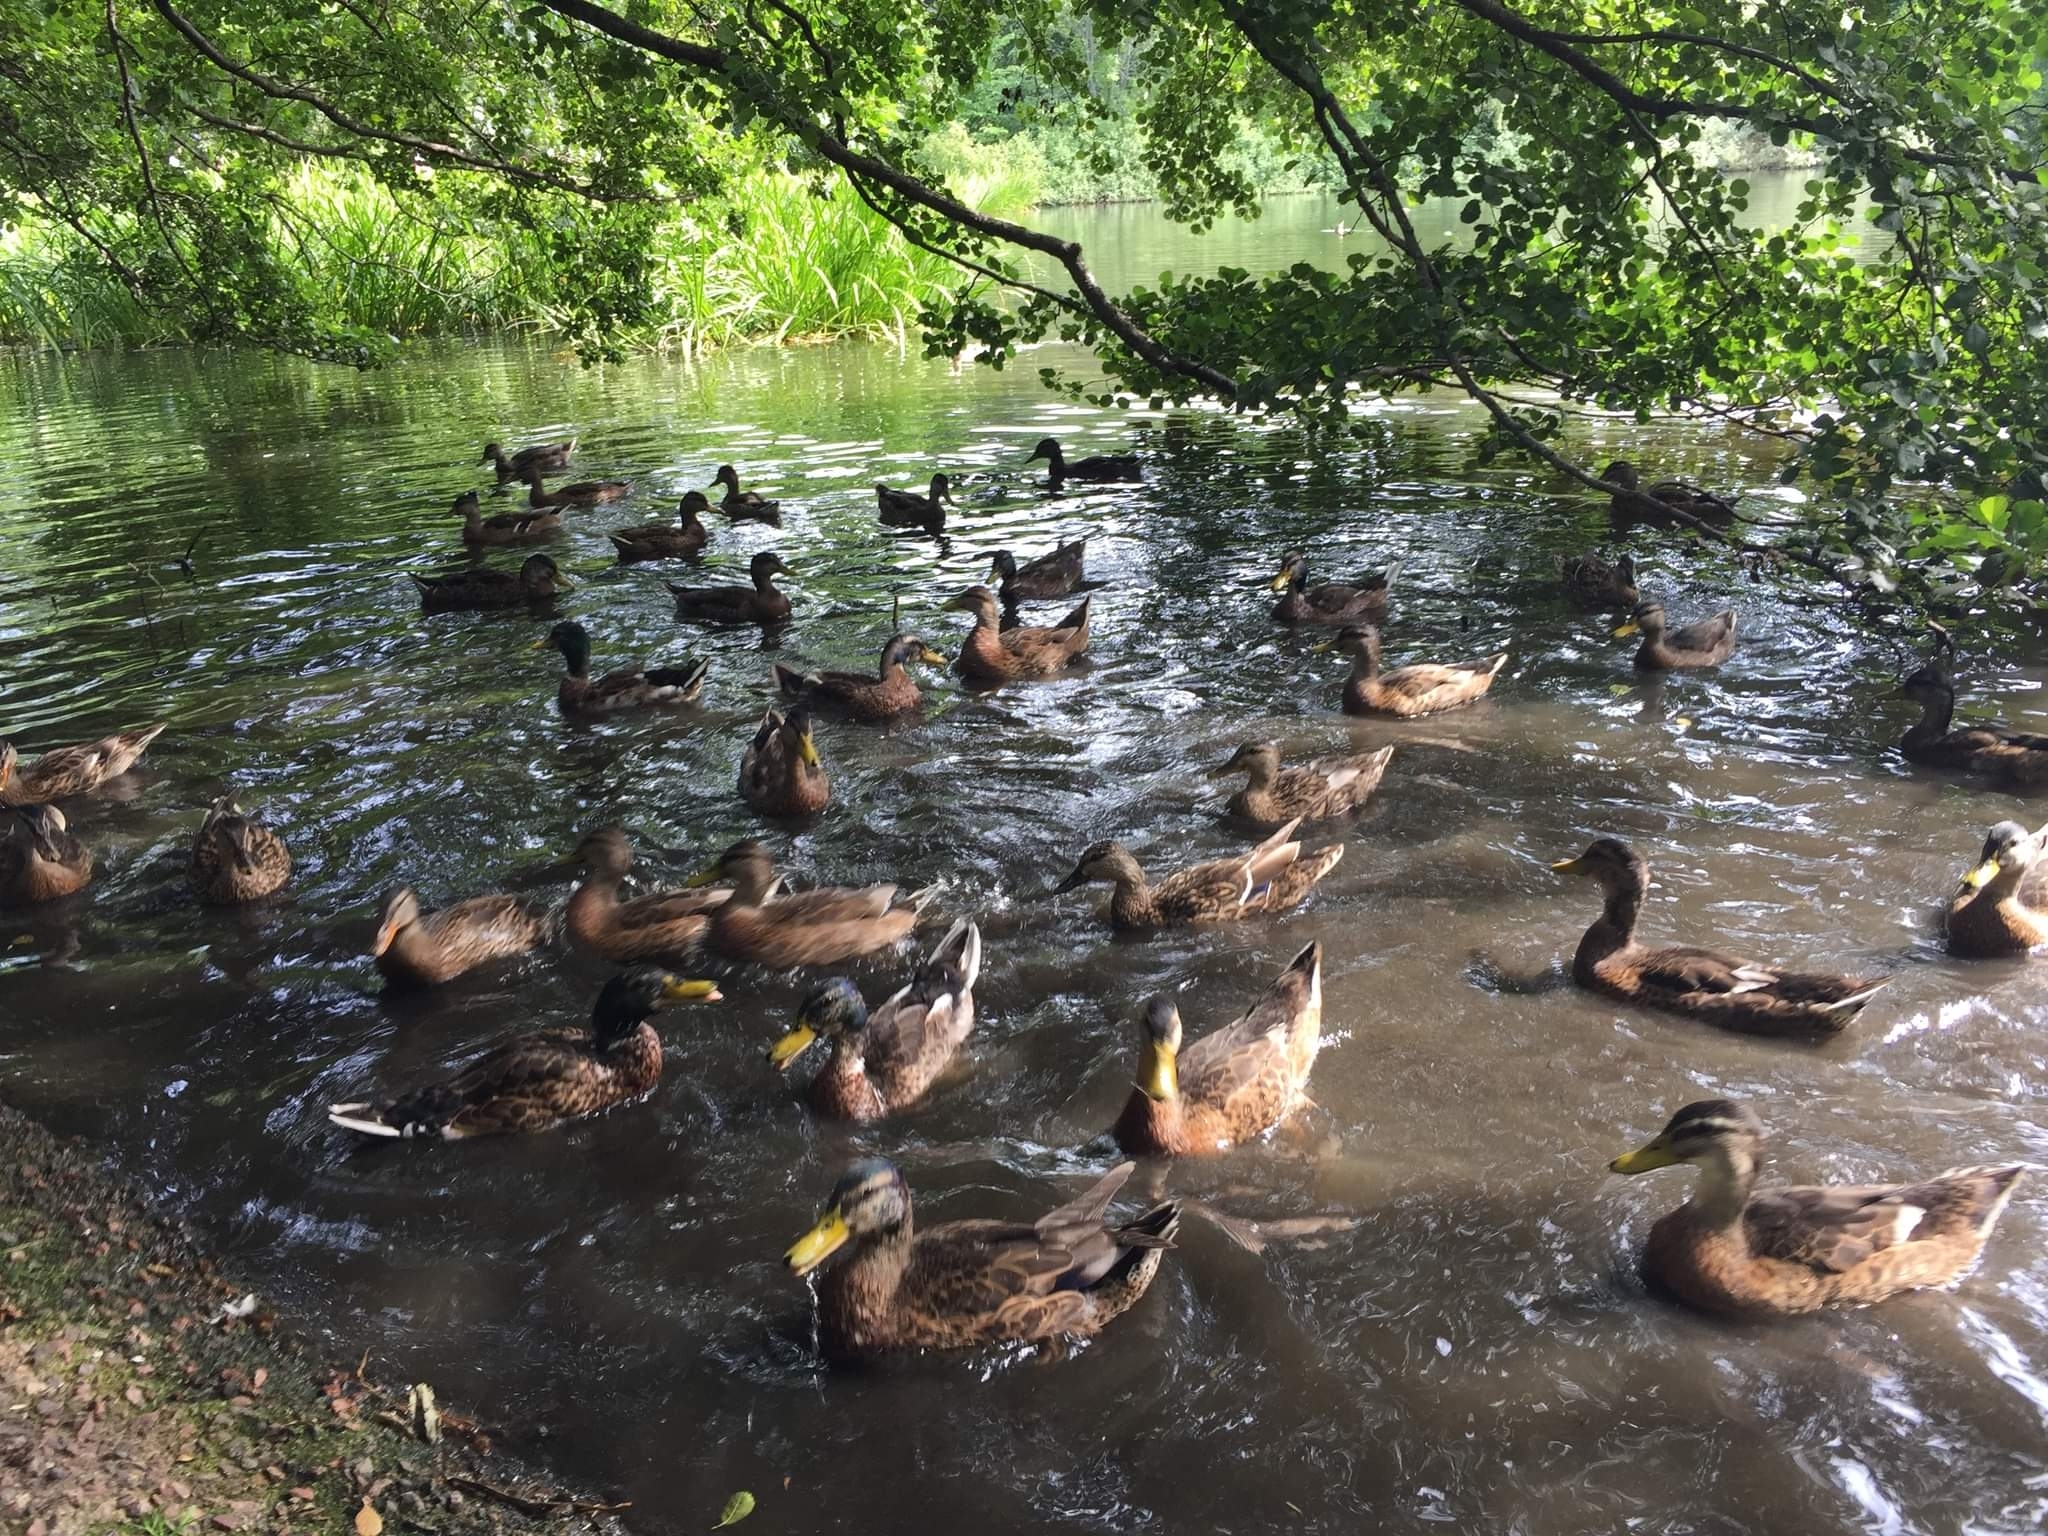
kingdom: Animalia
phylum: Chordata
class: Aves
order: Anseriformes
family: Anatidae
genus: Anas
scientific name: Anas platyrhynchos
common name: Mallard
